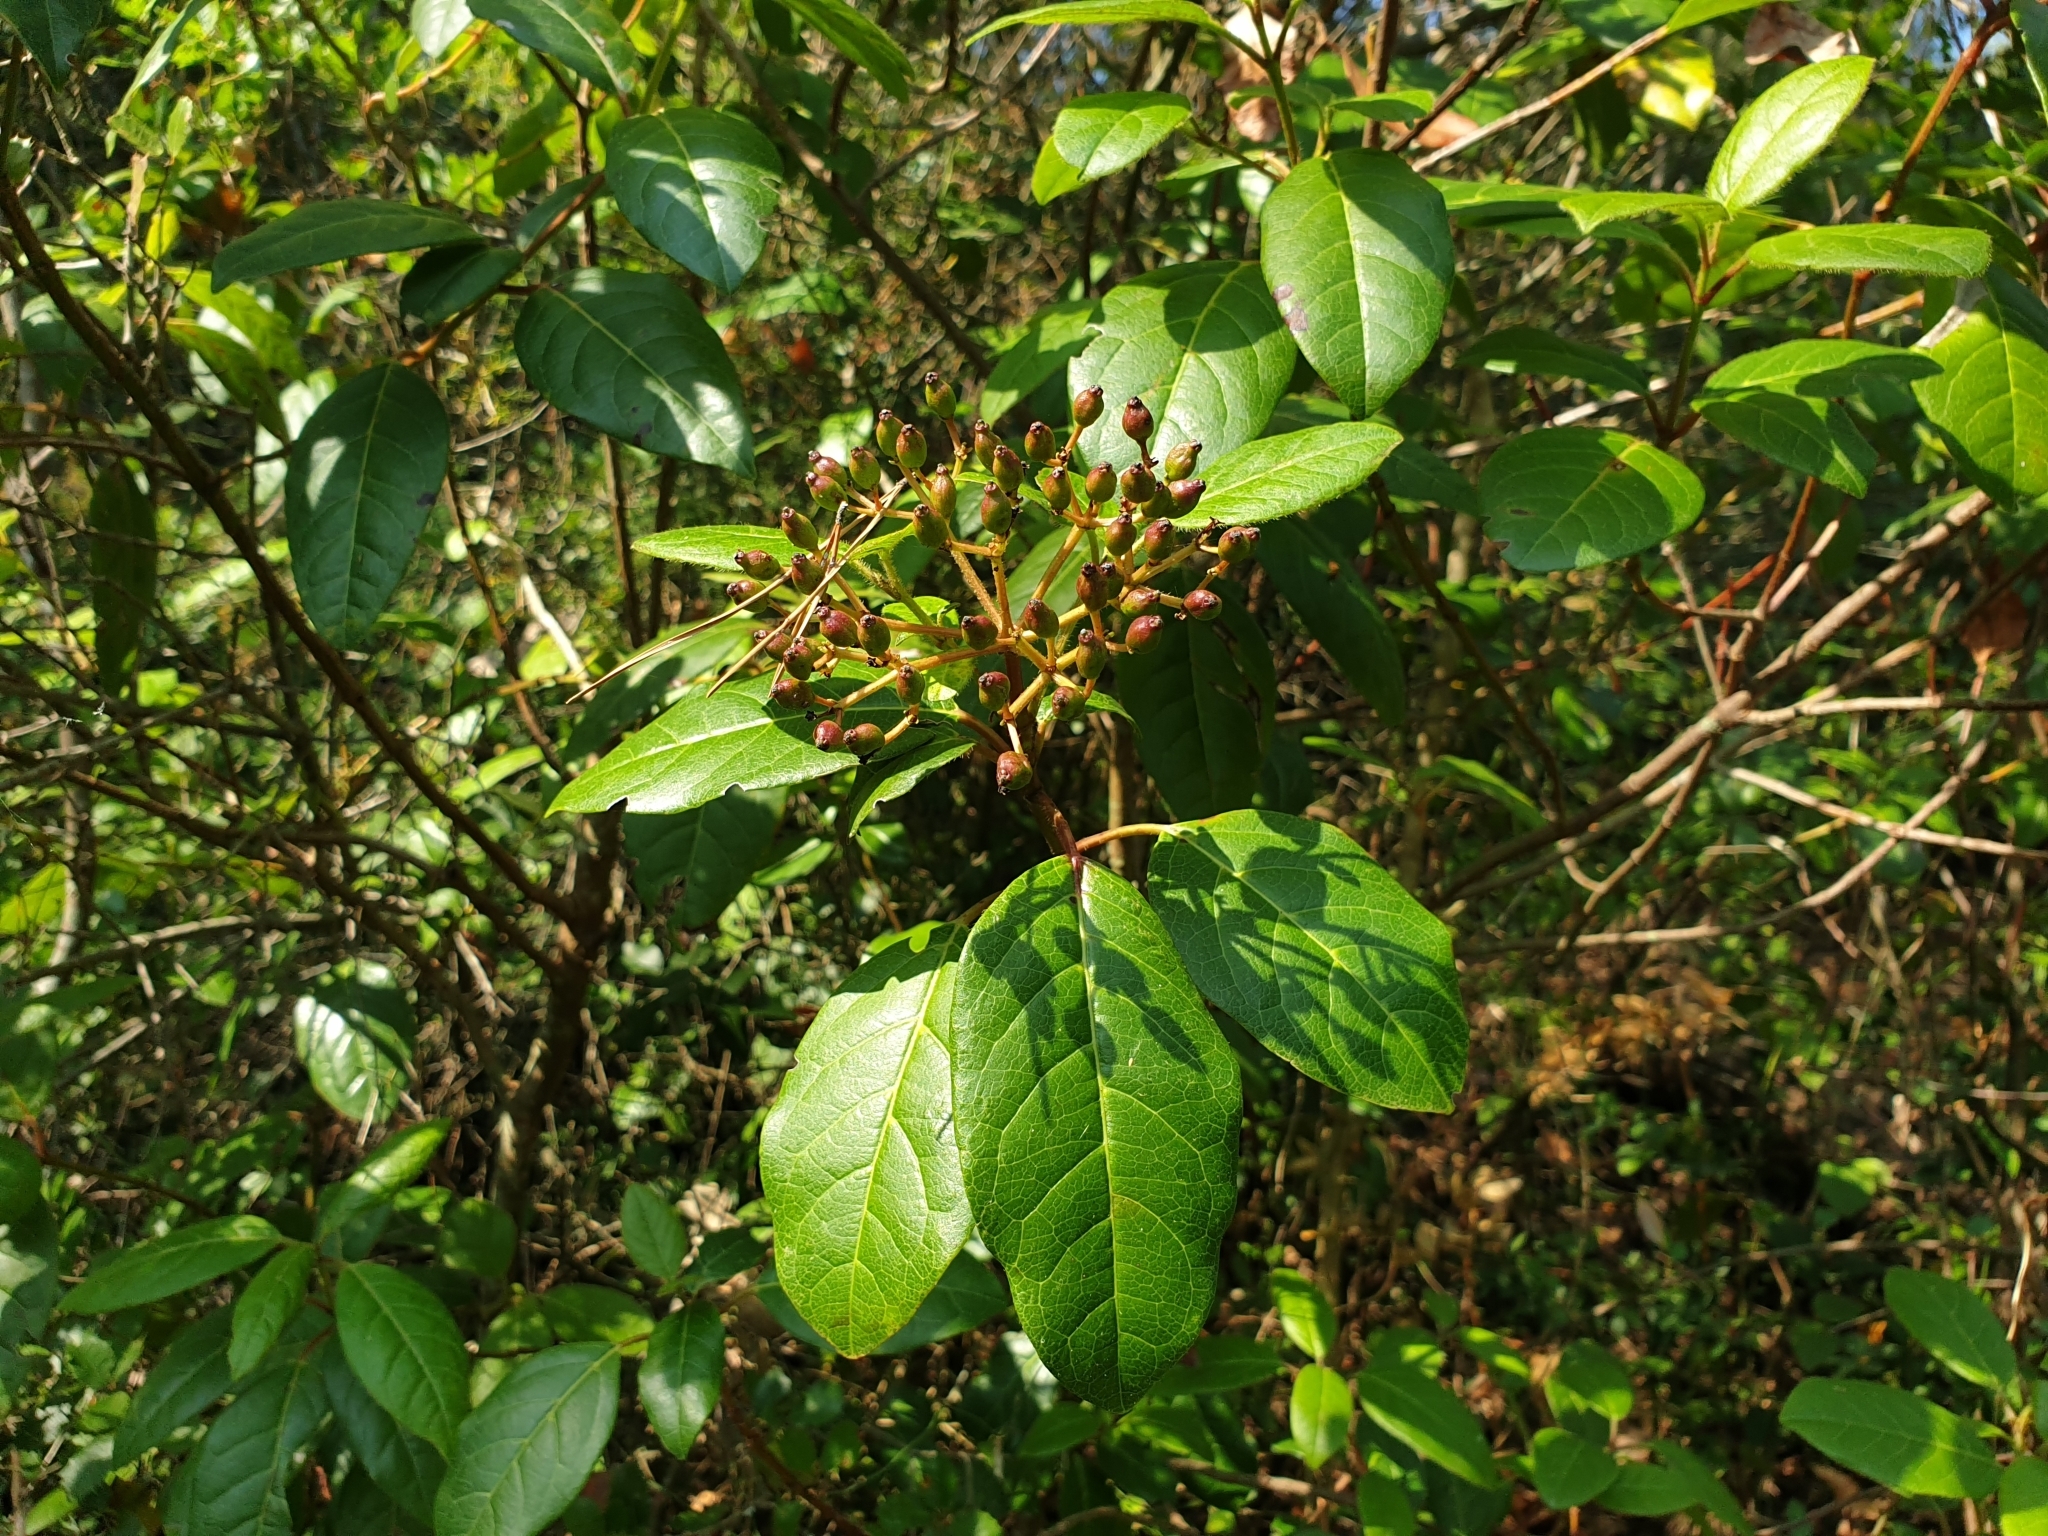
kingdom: Plantae
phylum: Tracheophyta
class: Magnoliopsida
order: Dipsacales
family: Viburnaceae
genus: Viburnum
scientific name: Viburnum tinus
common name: Laurustinus
